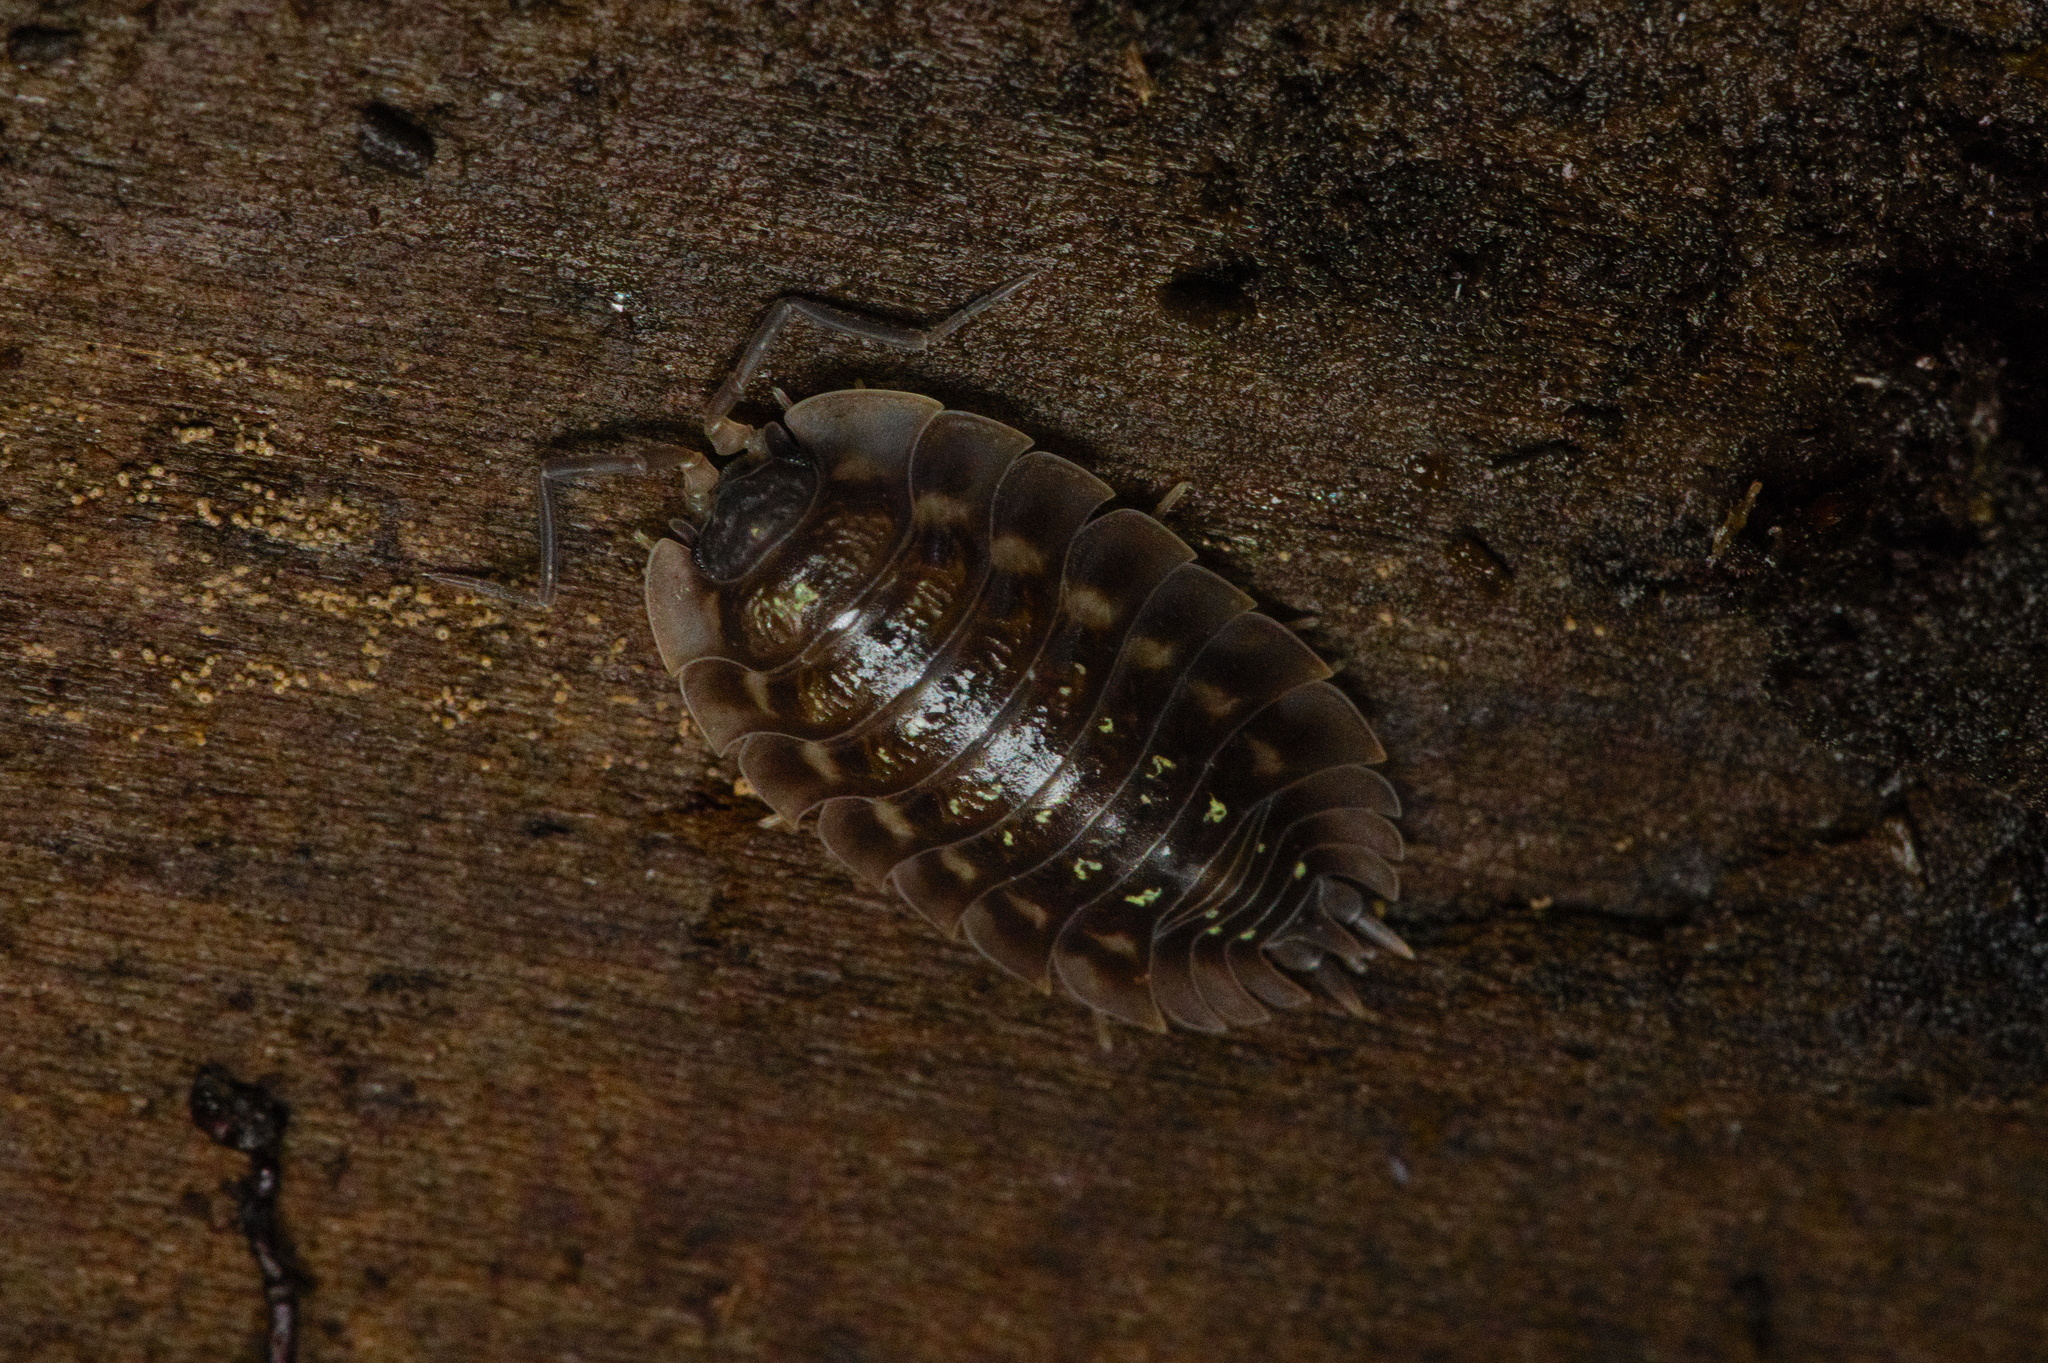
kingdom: Animalia
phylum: Arthropoda
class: Malacostraca
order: Isopoda
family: Oniscidae
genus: Oniscus
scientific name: Oniscus asellus
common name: Common shiny woodlouse
